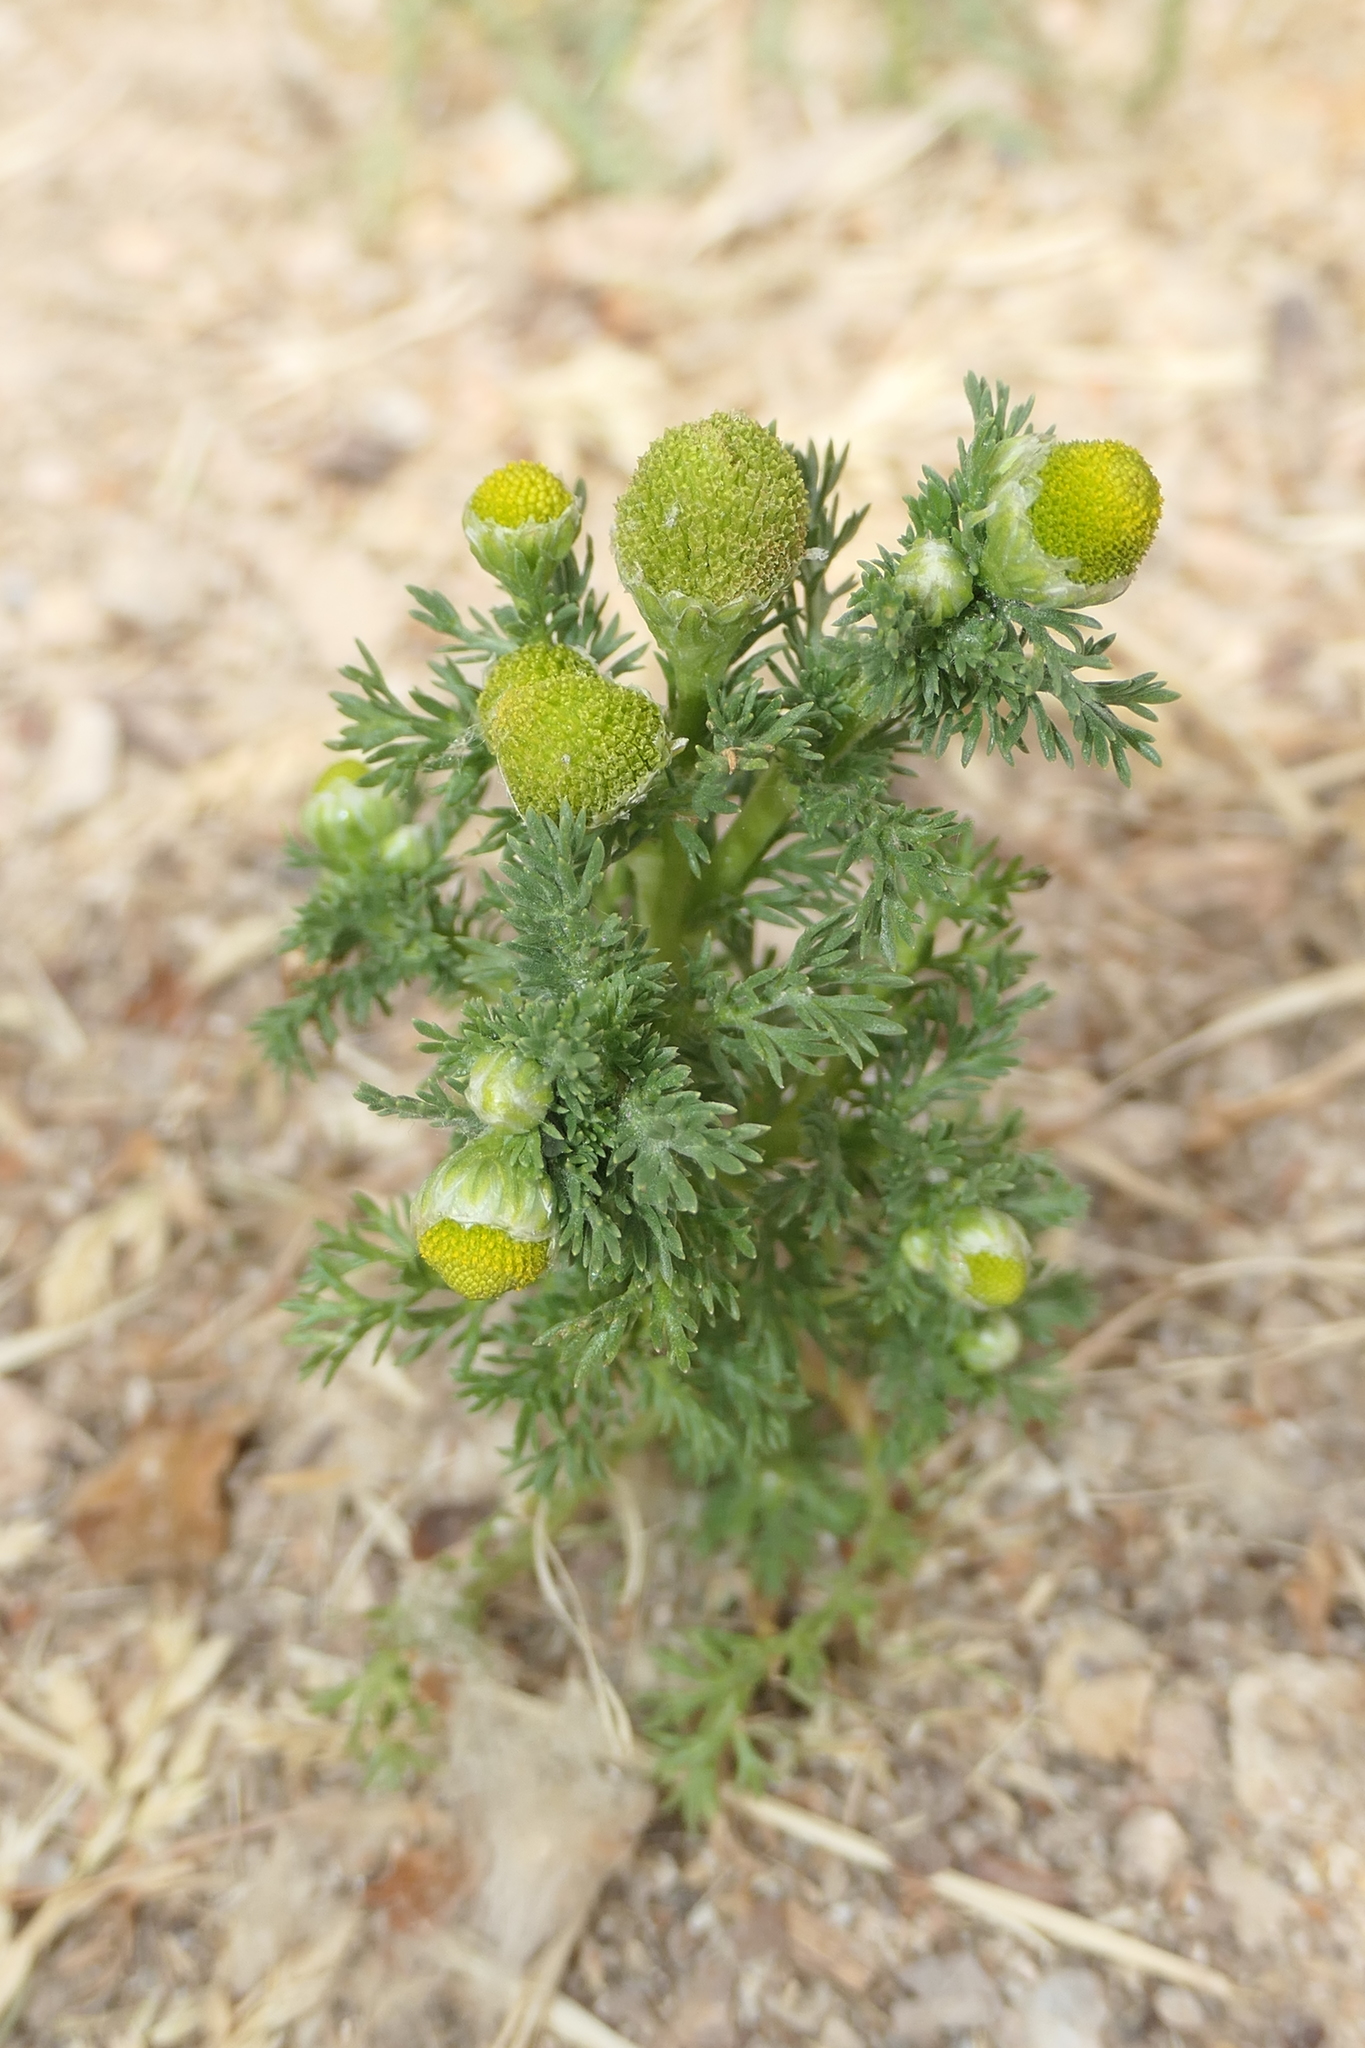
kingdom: Plantae
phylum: Tracheophyta
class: Magnoliopsida
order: Asterales
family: Asteraceae
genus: Matricaria
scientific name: Matricaria discoidea
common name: Disc mayweed
